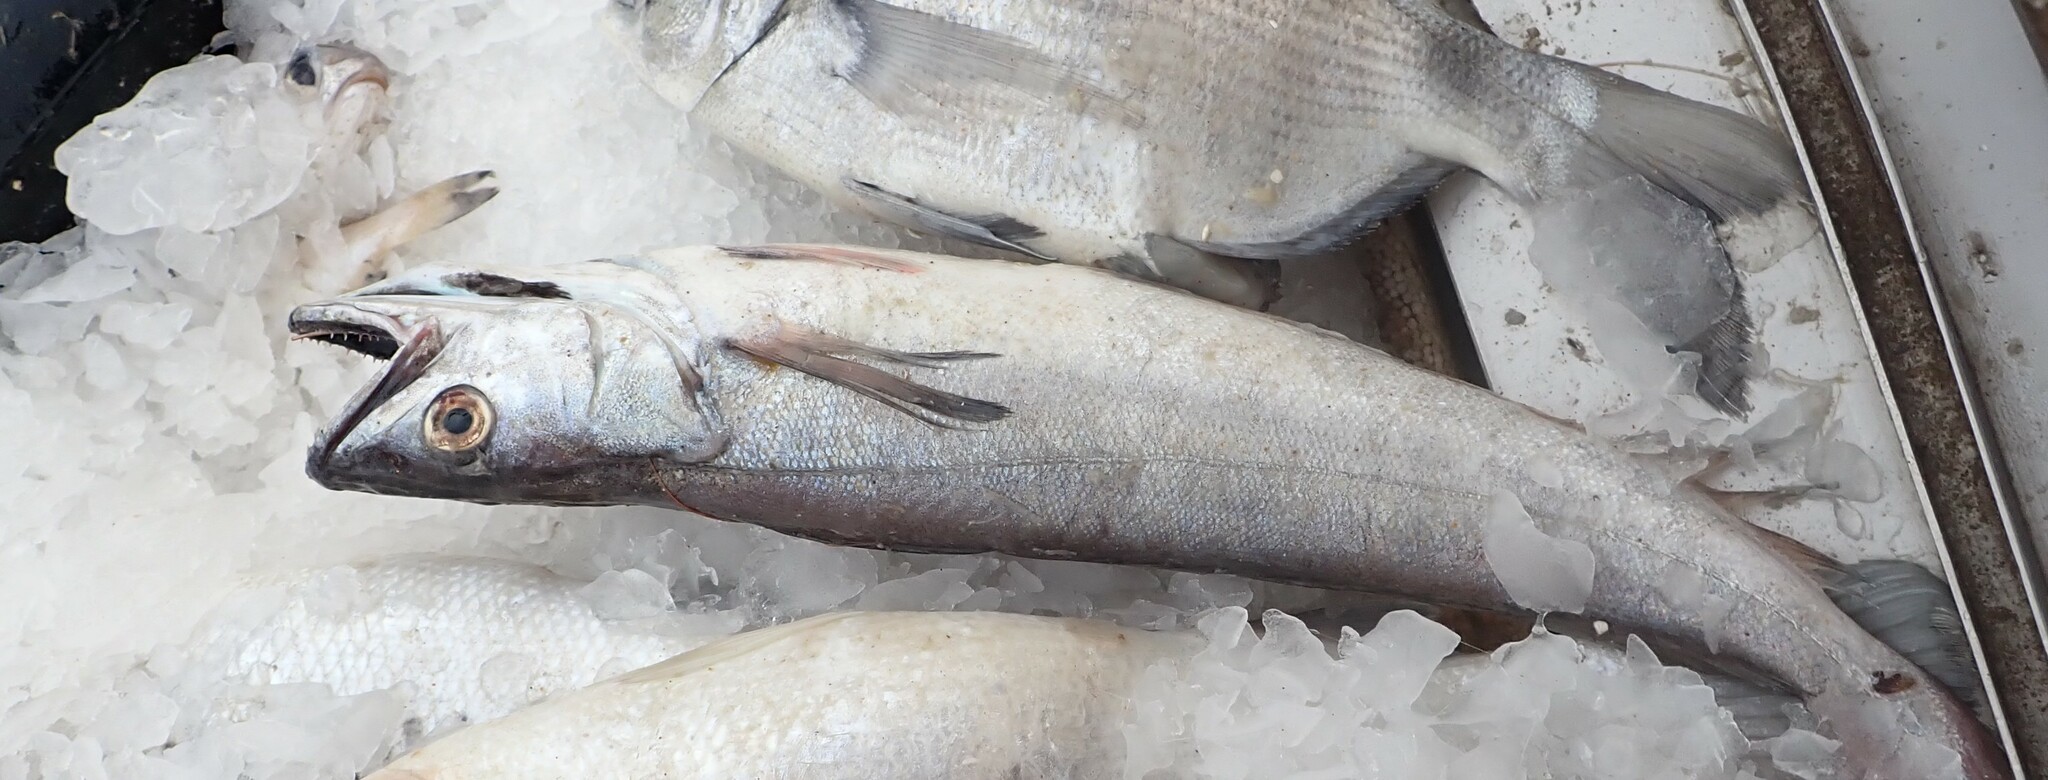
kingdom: Animalia
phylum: Chordata
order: Gadiformes
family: Merlucciidae
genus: Merluccius
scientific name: Merluccius merluccius
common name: European hake
